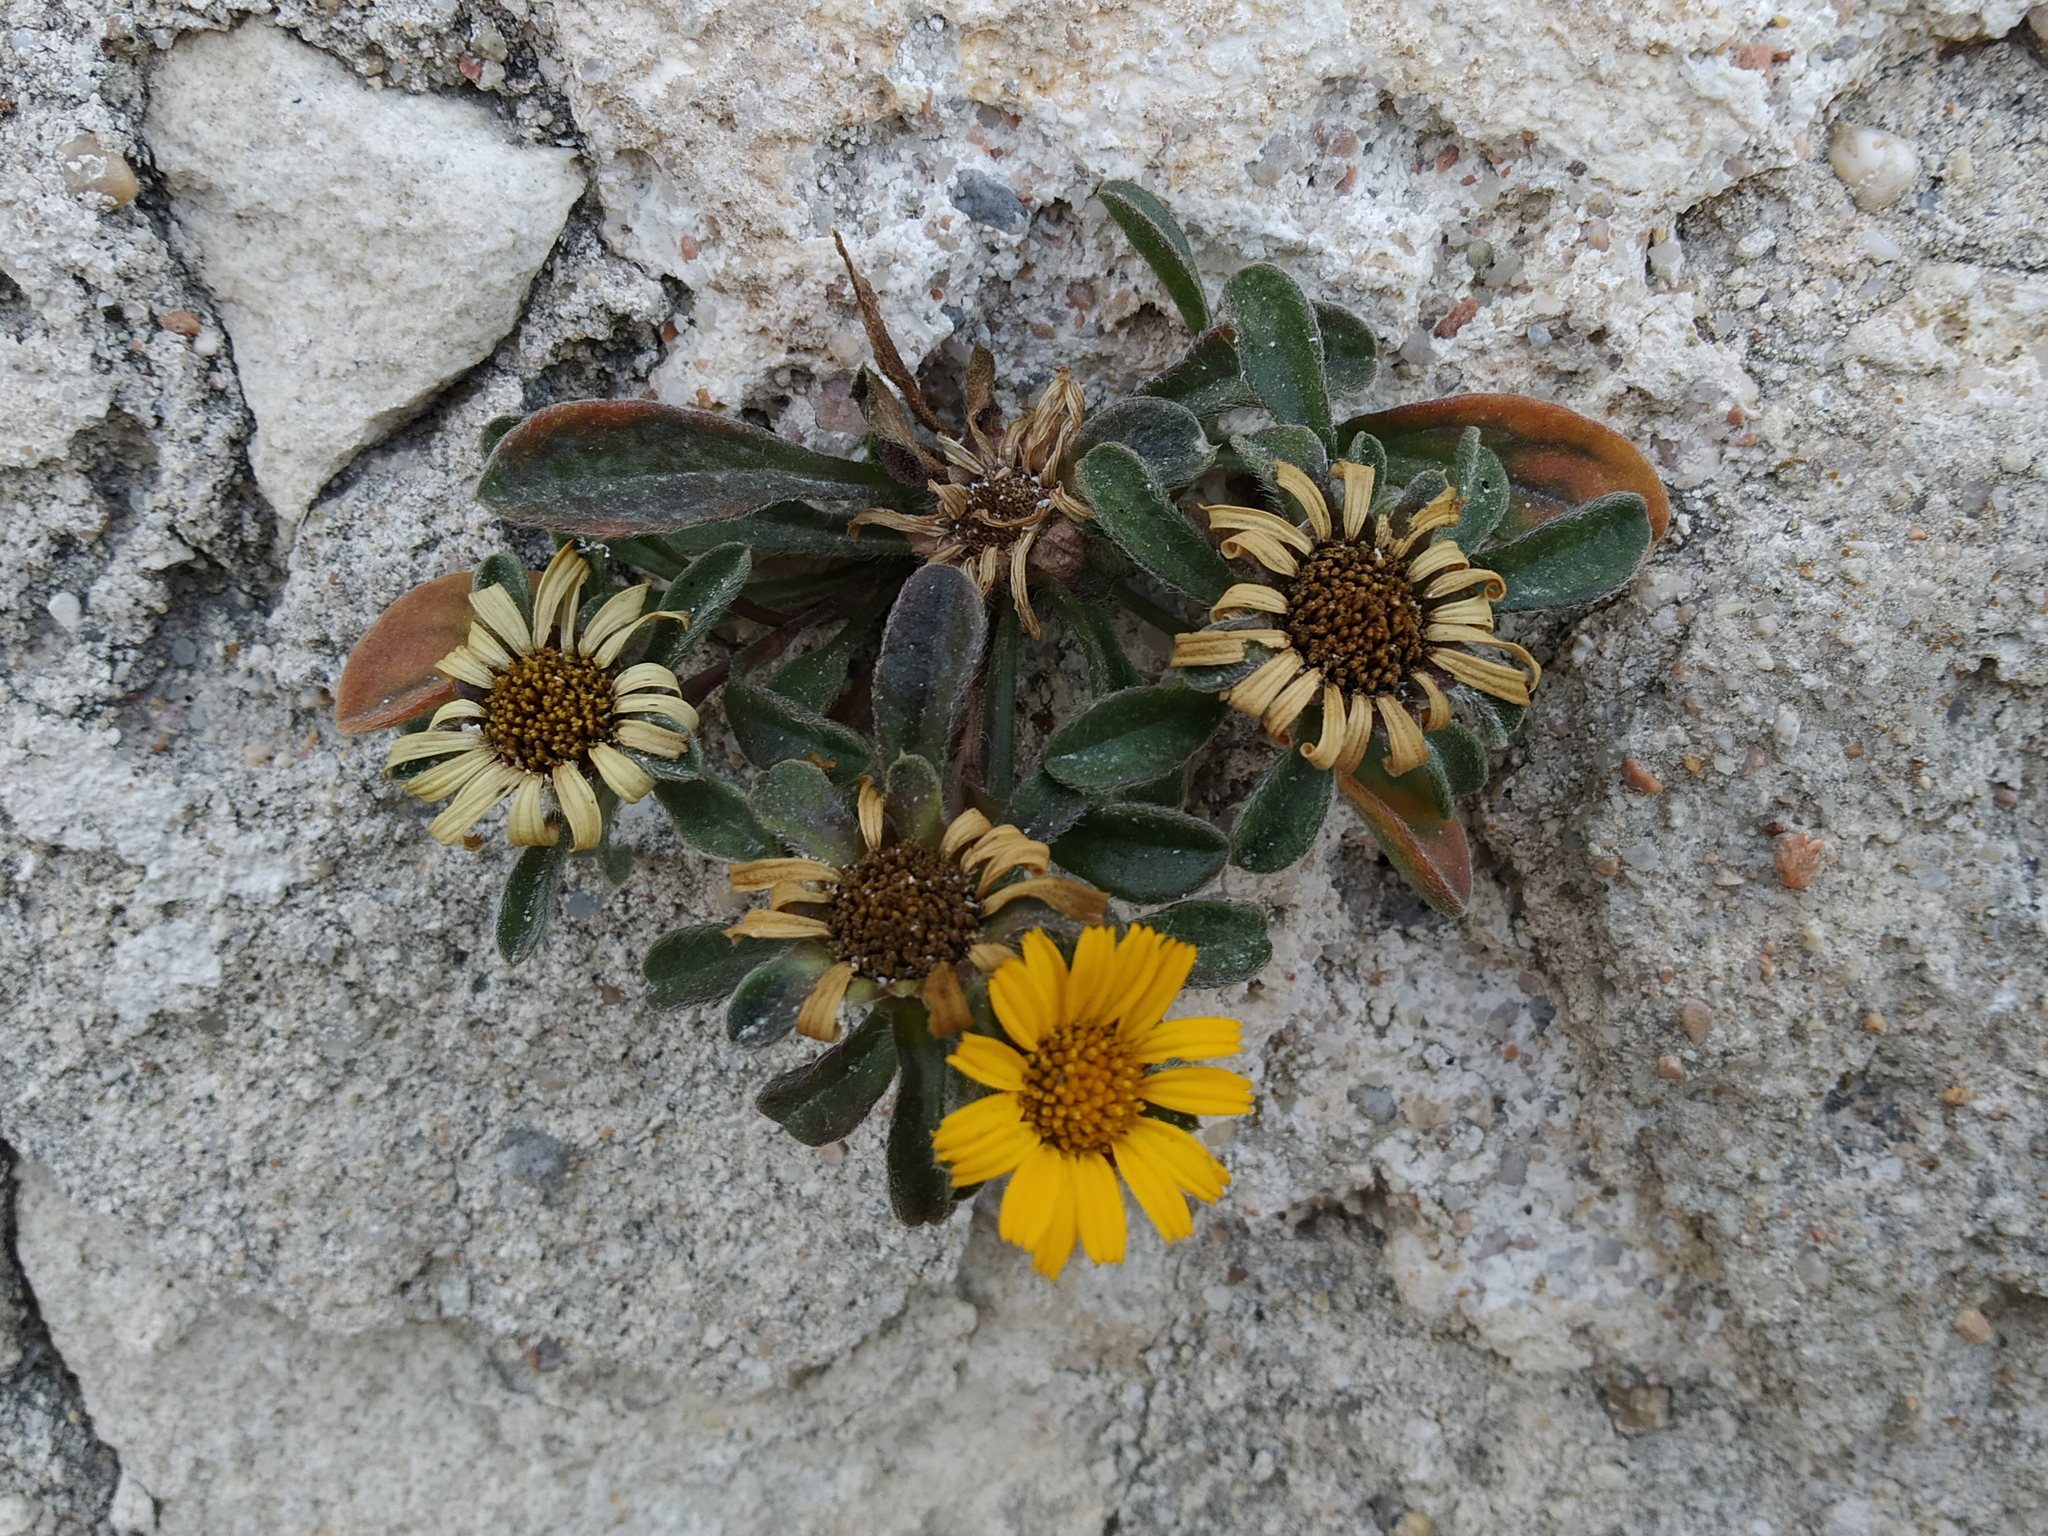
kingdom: Plantae
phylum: Tracheophyta
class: Magnoliopsida
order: Asterales
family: Asteraceae
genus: Pallenis
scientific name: Pallenis maritima
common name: Golden coin daisy
